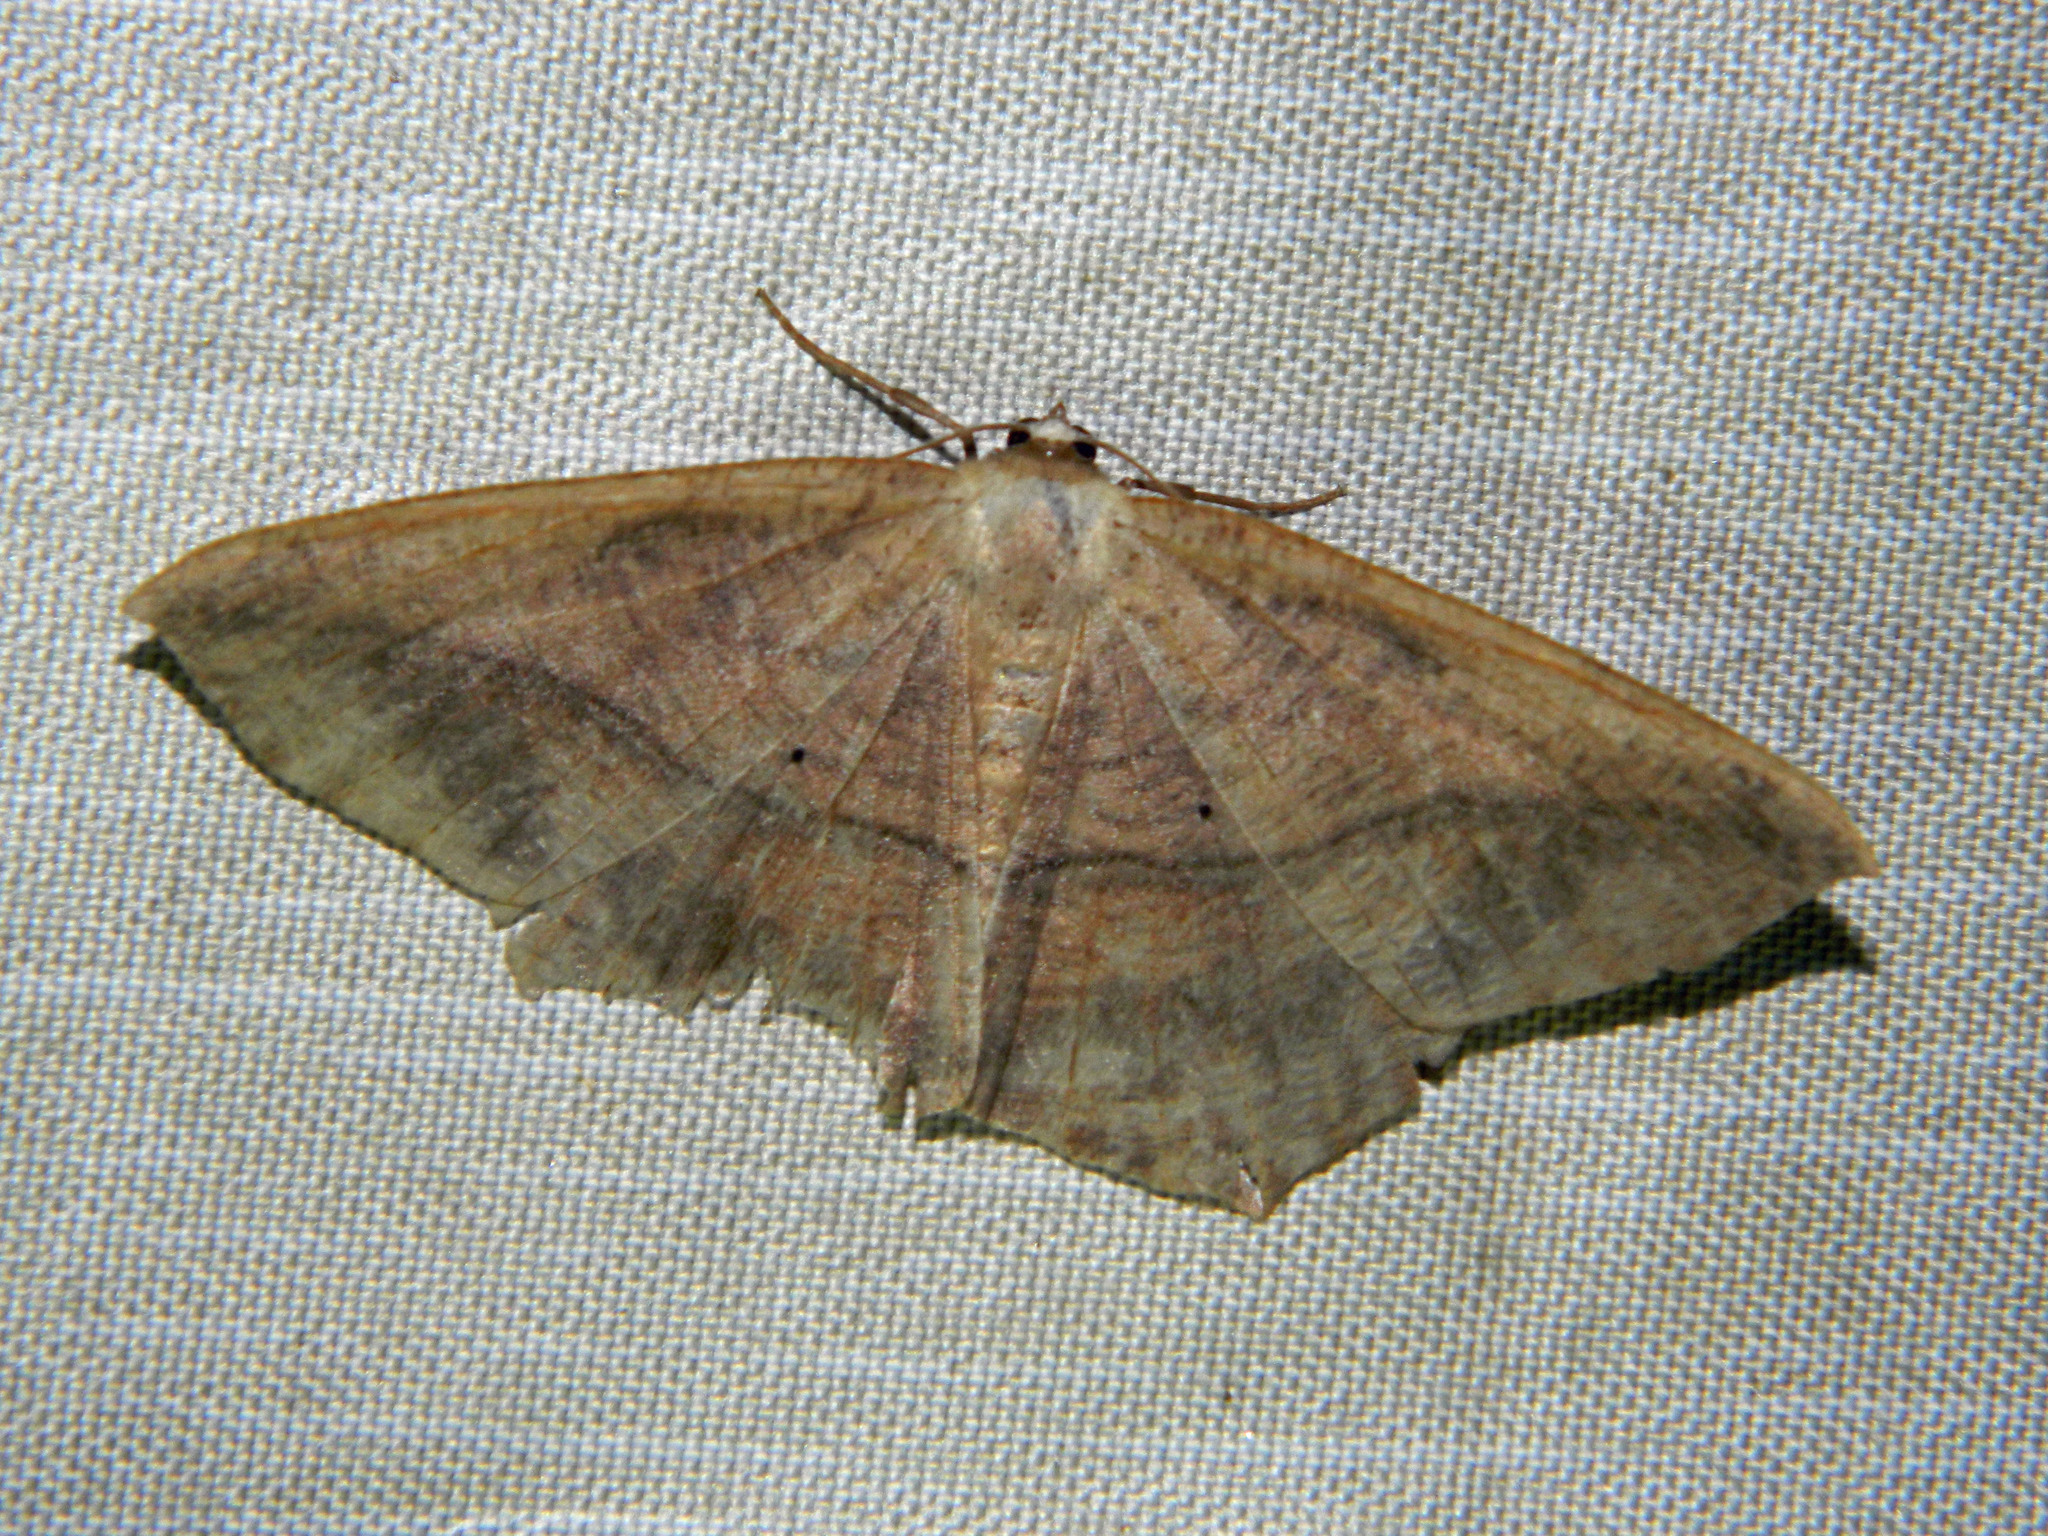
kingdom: Animalia
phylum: Arthropoda
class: Insecta
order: Lepidoptera
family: Geometridae
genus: Prochoerodes
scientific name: Prochoerodes lineola
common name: Large maple spanworm
